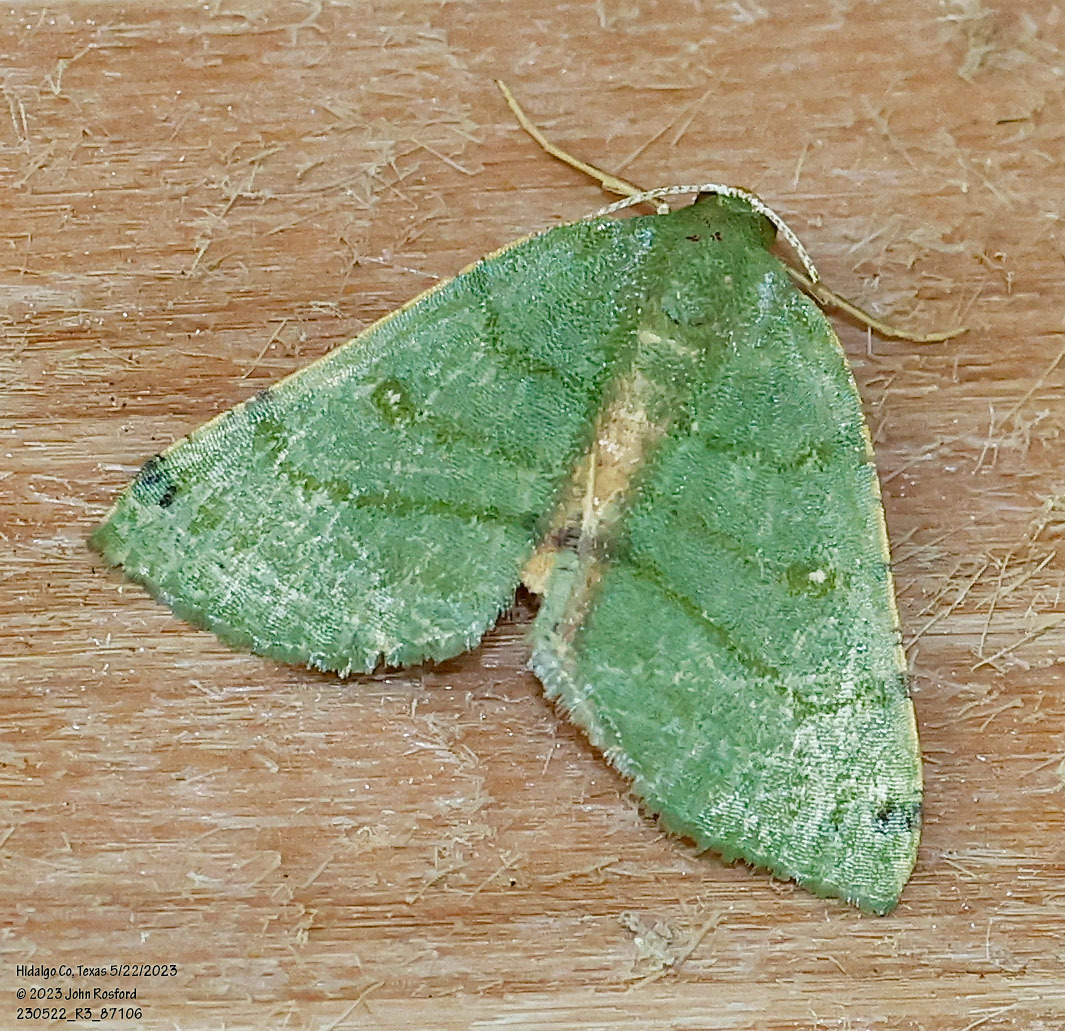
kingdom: Animalia
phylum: Arthropoda
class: Insecta
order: Lepidoptera
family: Geometridae
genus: Chloraspilates
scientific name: Chloraspilates bicoloraria
